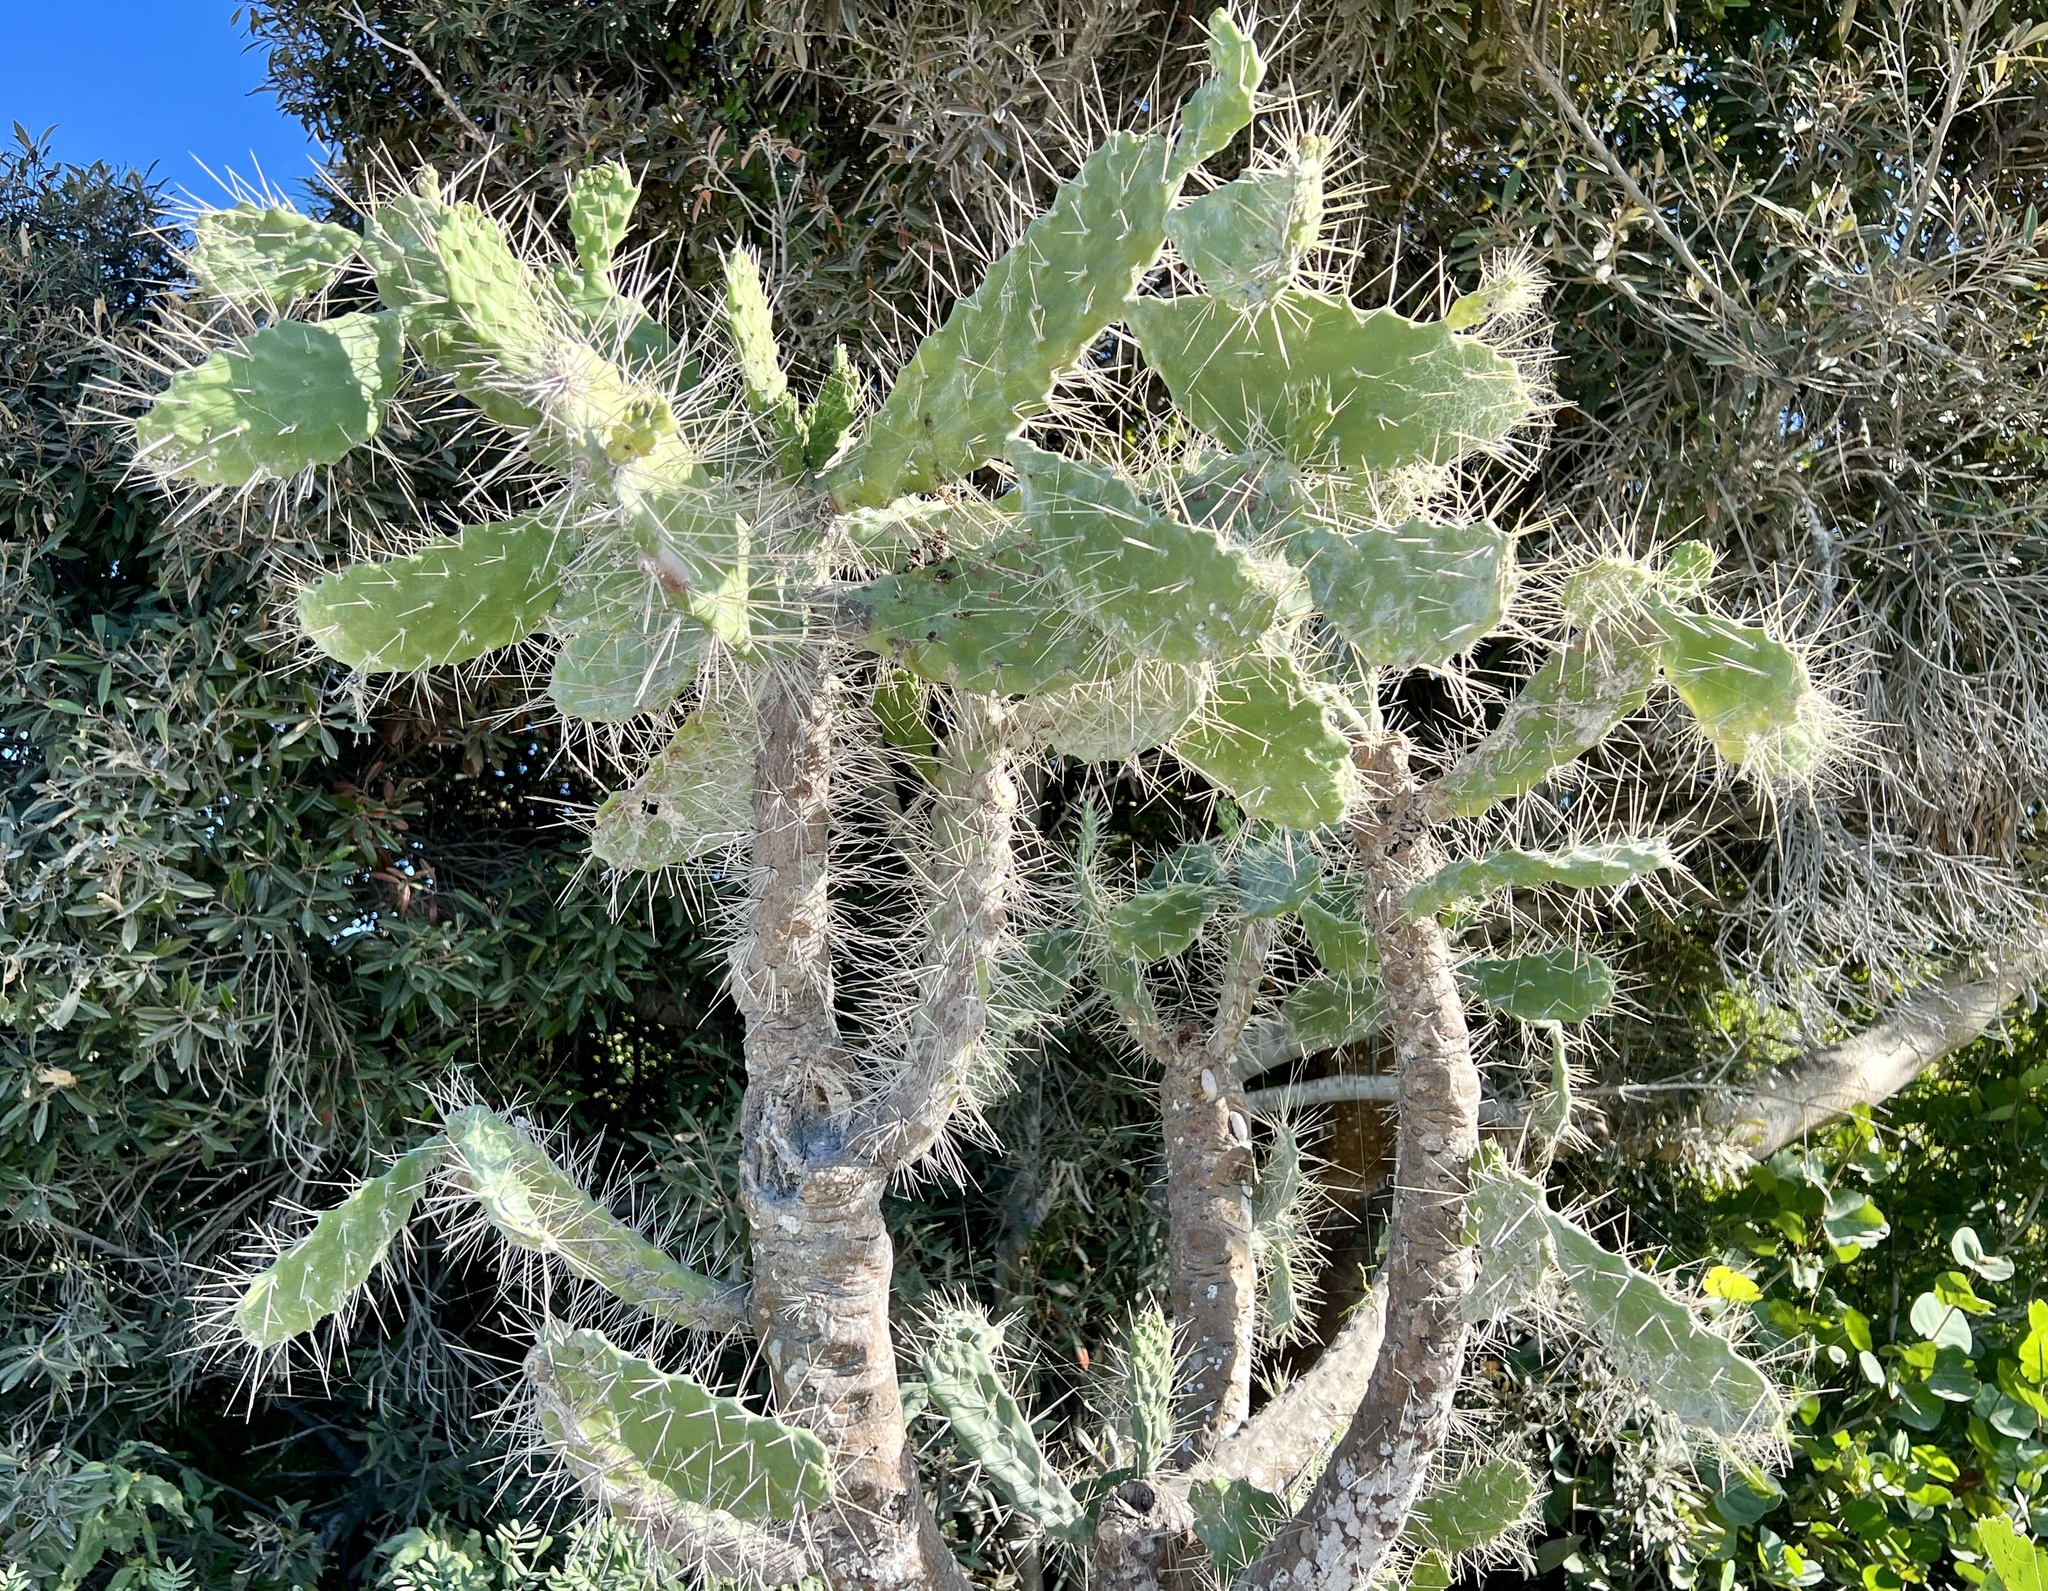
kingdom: Plantae
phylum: Tracheophyta
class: Magnoliopsida
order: Caryophyllales
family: Cactaceae
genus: Consolea
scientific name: Consolea macracantha
